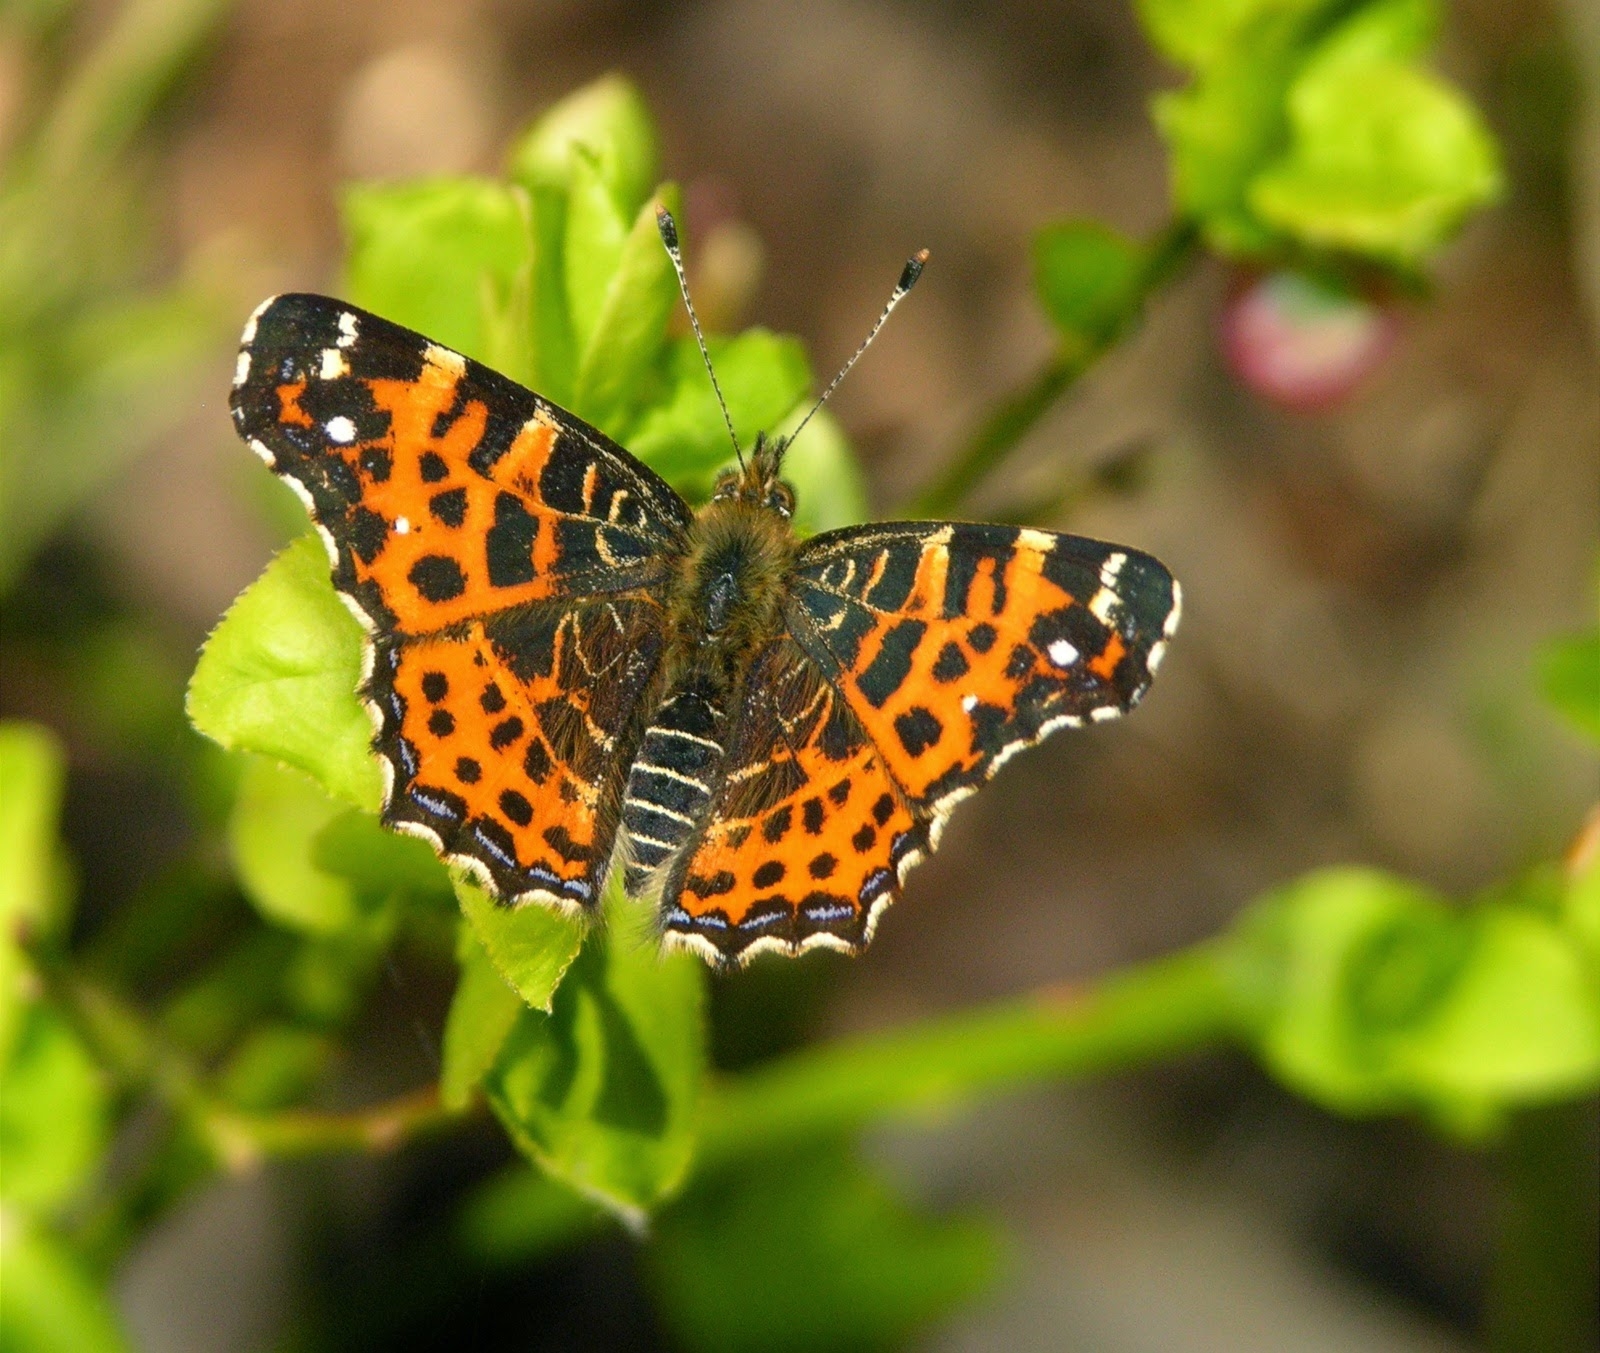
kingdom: Animalia
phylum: Arthropoda
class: Insecta
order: Lepidoptera
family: Nymphalidae
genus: Araschnia
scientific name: Araschnia levana
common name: Map butterfly
